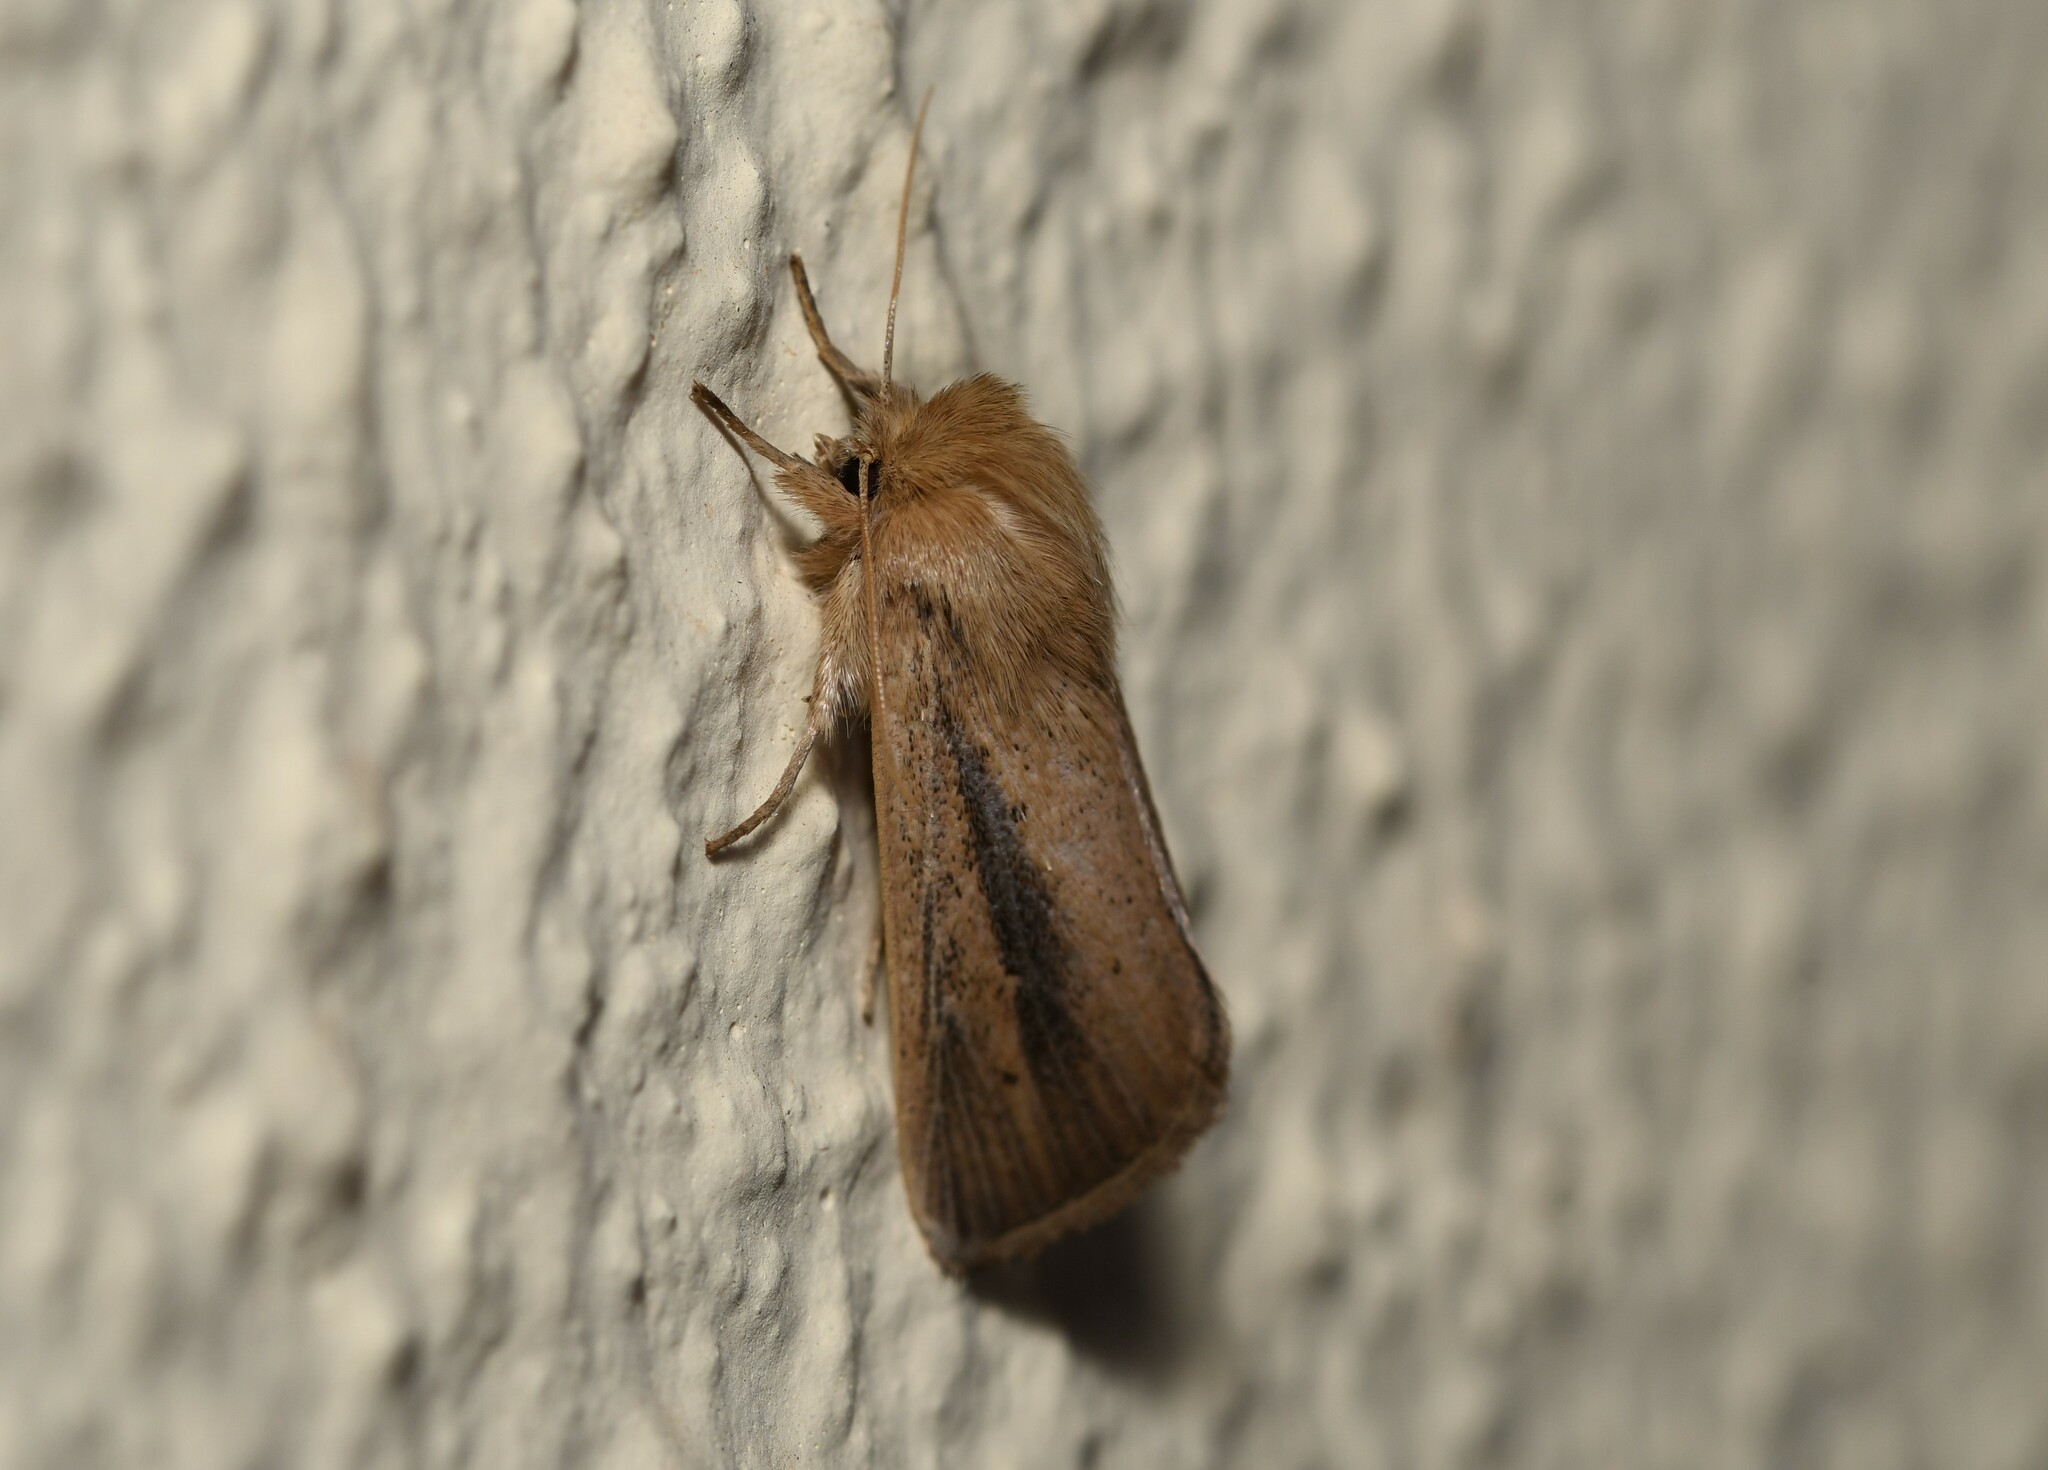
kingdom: Animalia
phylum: Arthropoda
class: Insecta
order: Lepidoptera
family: Noctuidae
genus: Sesamia
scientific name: Sesamia nonagrioides
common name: Pink stem borer
